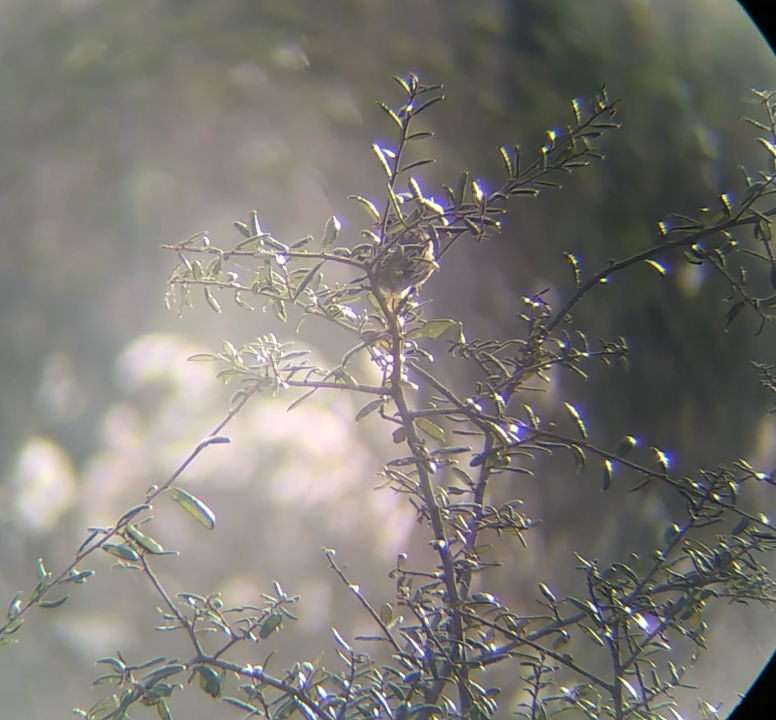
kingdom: Animalia
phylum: Chordata
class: Aves
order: Passeriformes
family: Passerellidae
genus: Pooecetes
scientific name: Pooecetes gramineus
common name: Vesper sparrow
